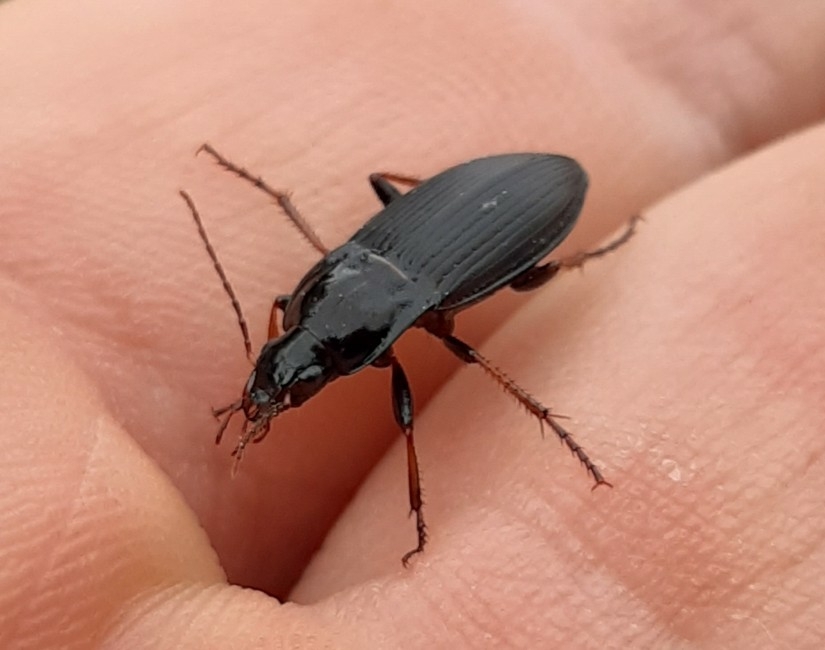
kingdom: Animalia
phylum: Arthropoda
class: Insecta
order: Coleoptera
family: Carabidae
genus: Calathus
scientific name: Calathus fuscipes
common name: Dark-footed harp ground beetle
